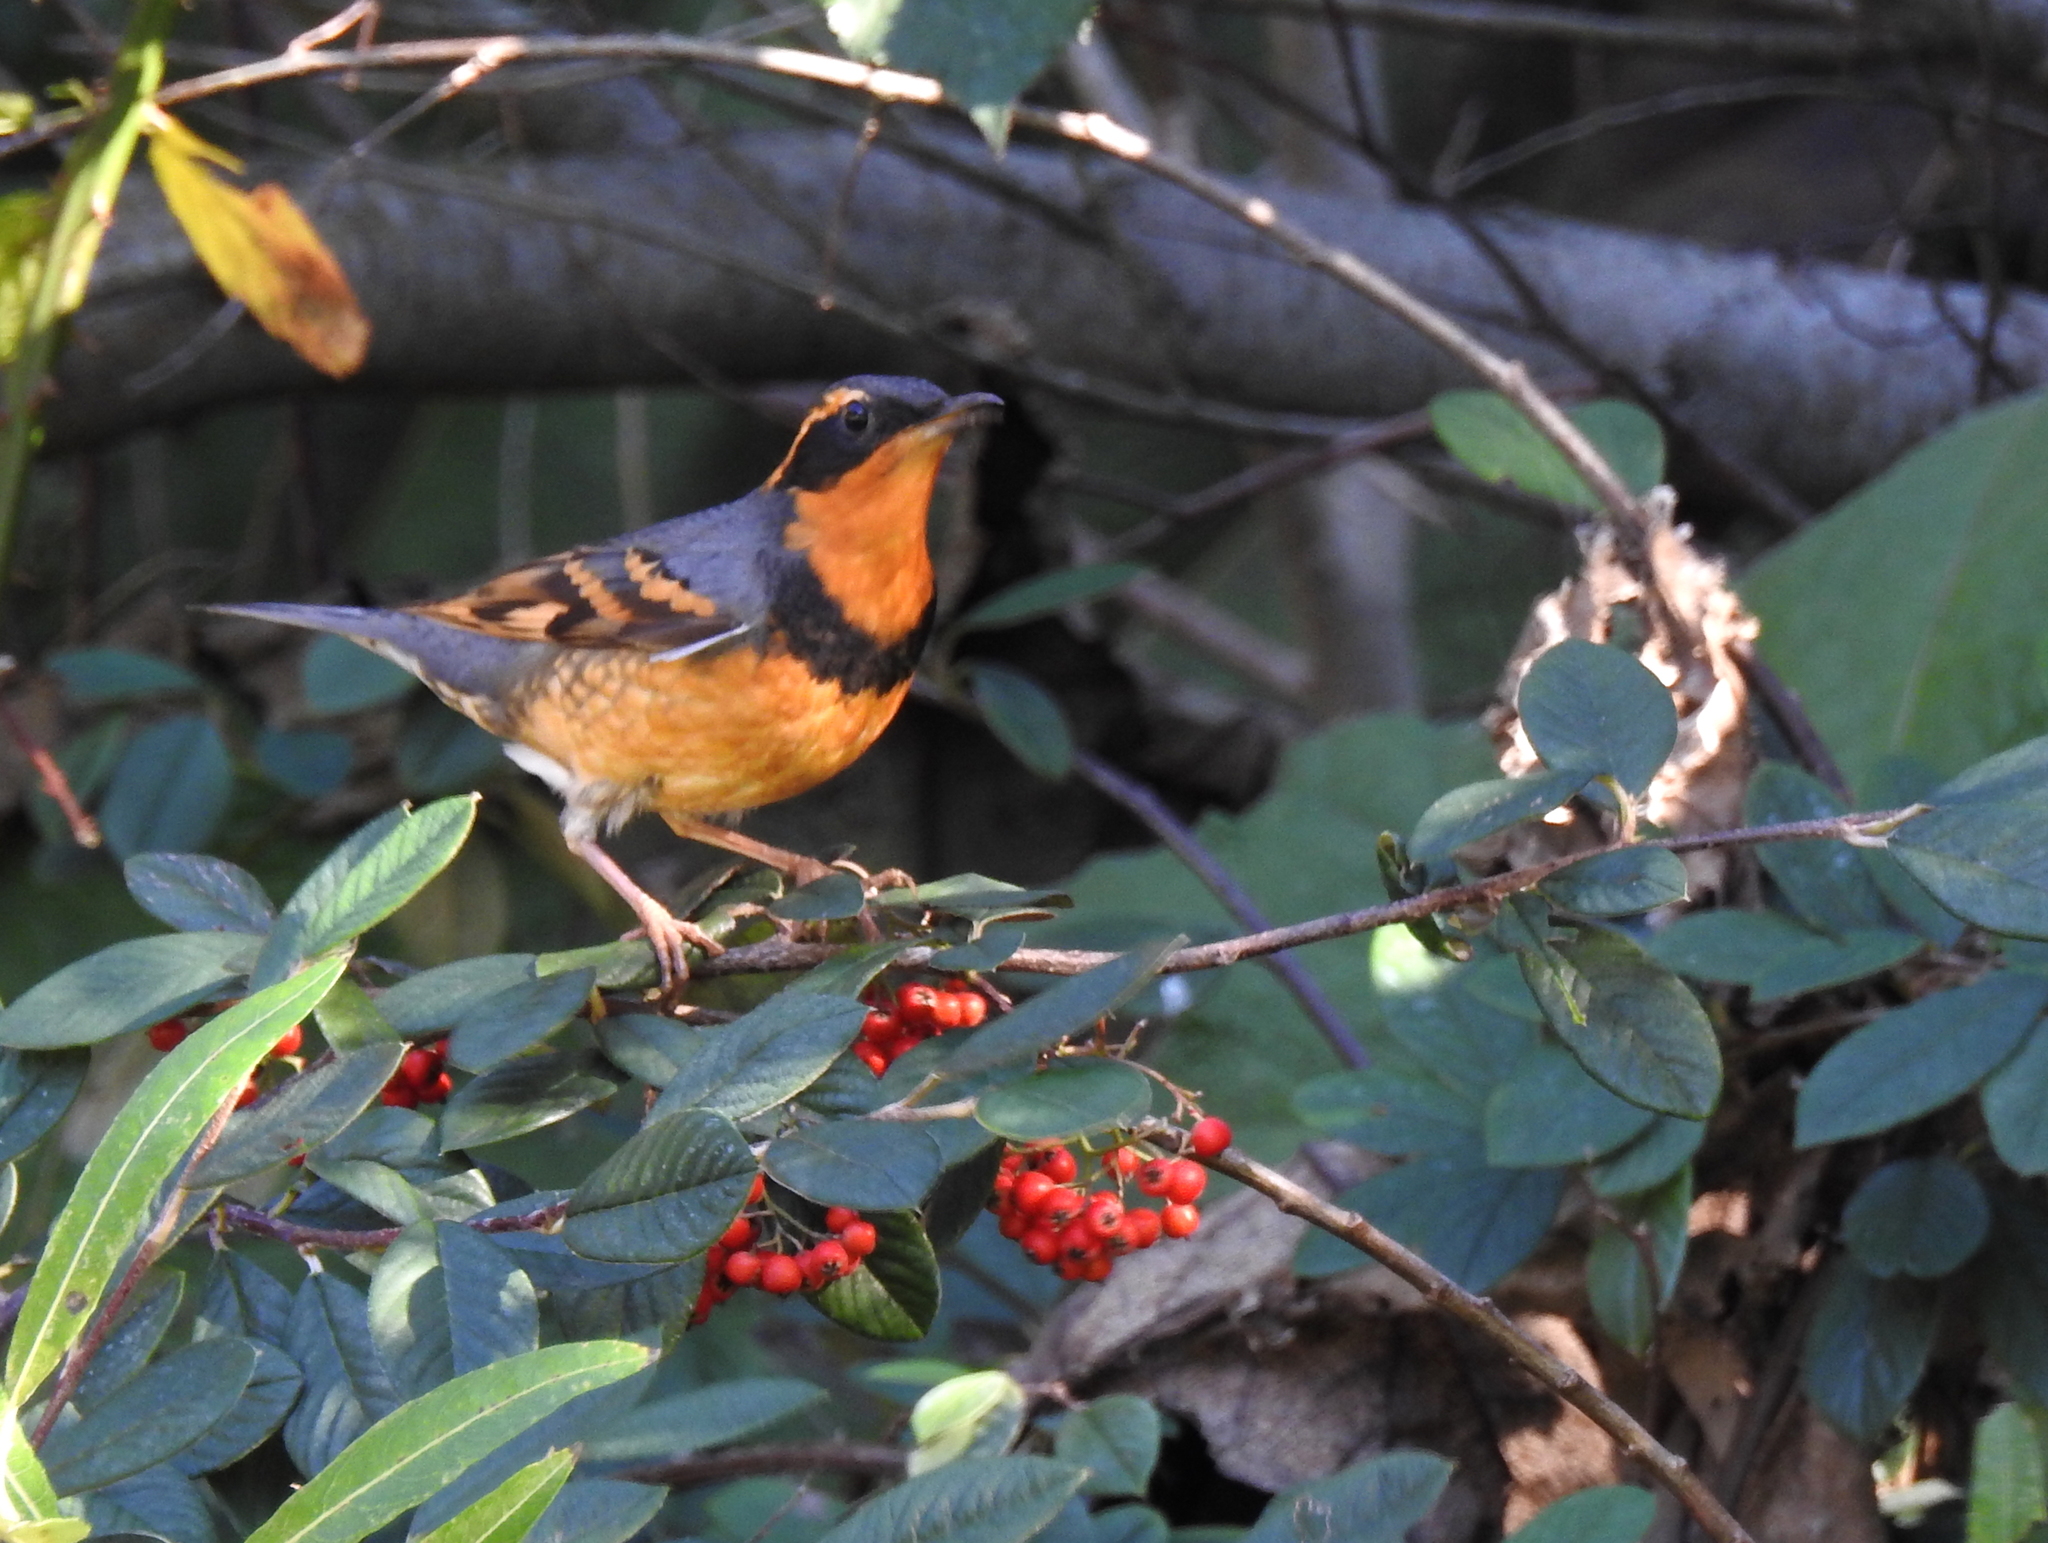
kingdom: Animalia
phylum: Chordata
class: Aves
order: Passeriformes
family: Turdidae
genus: Ixoreus
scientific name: Ixoreus naevius
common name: Varied thrush
